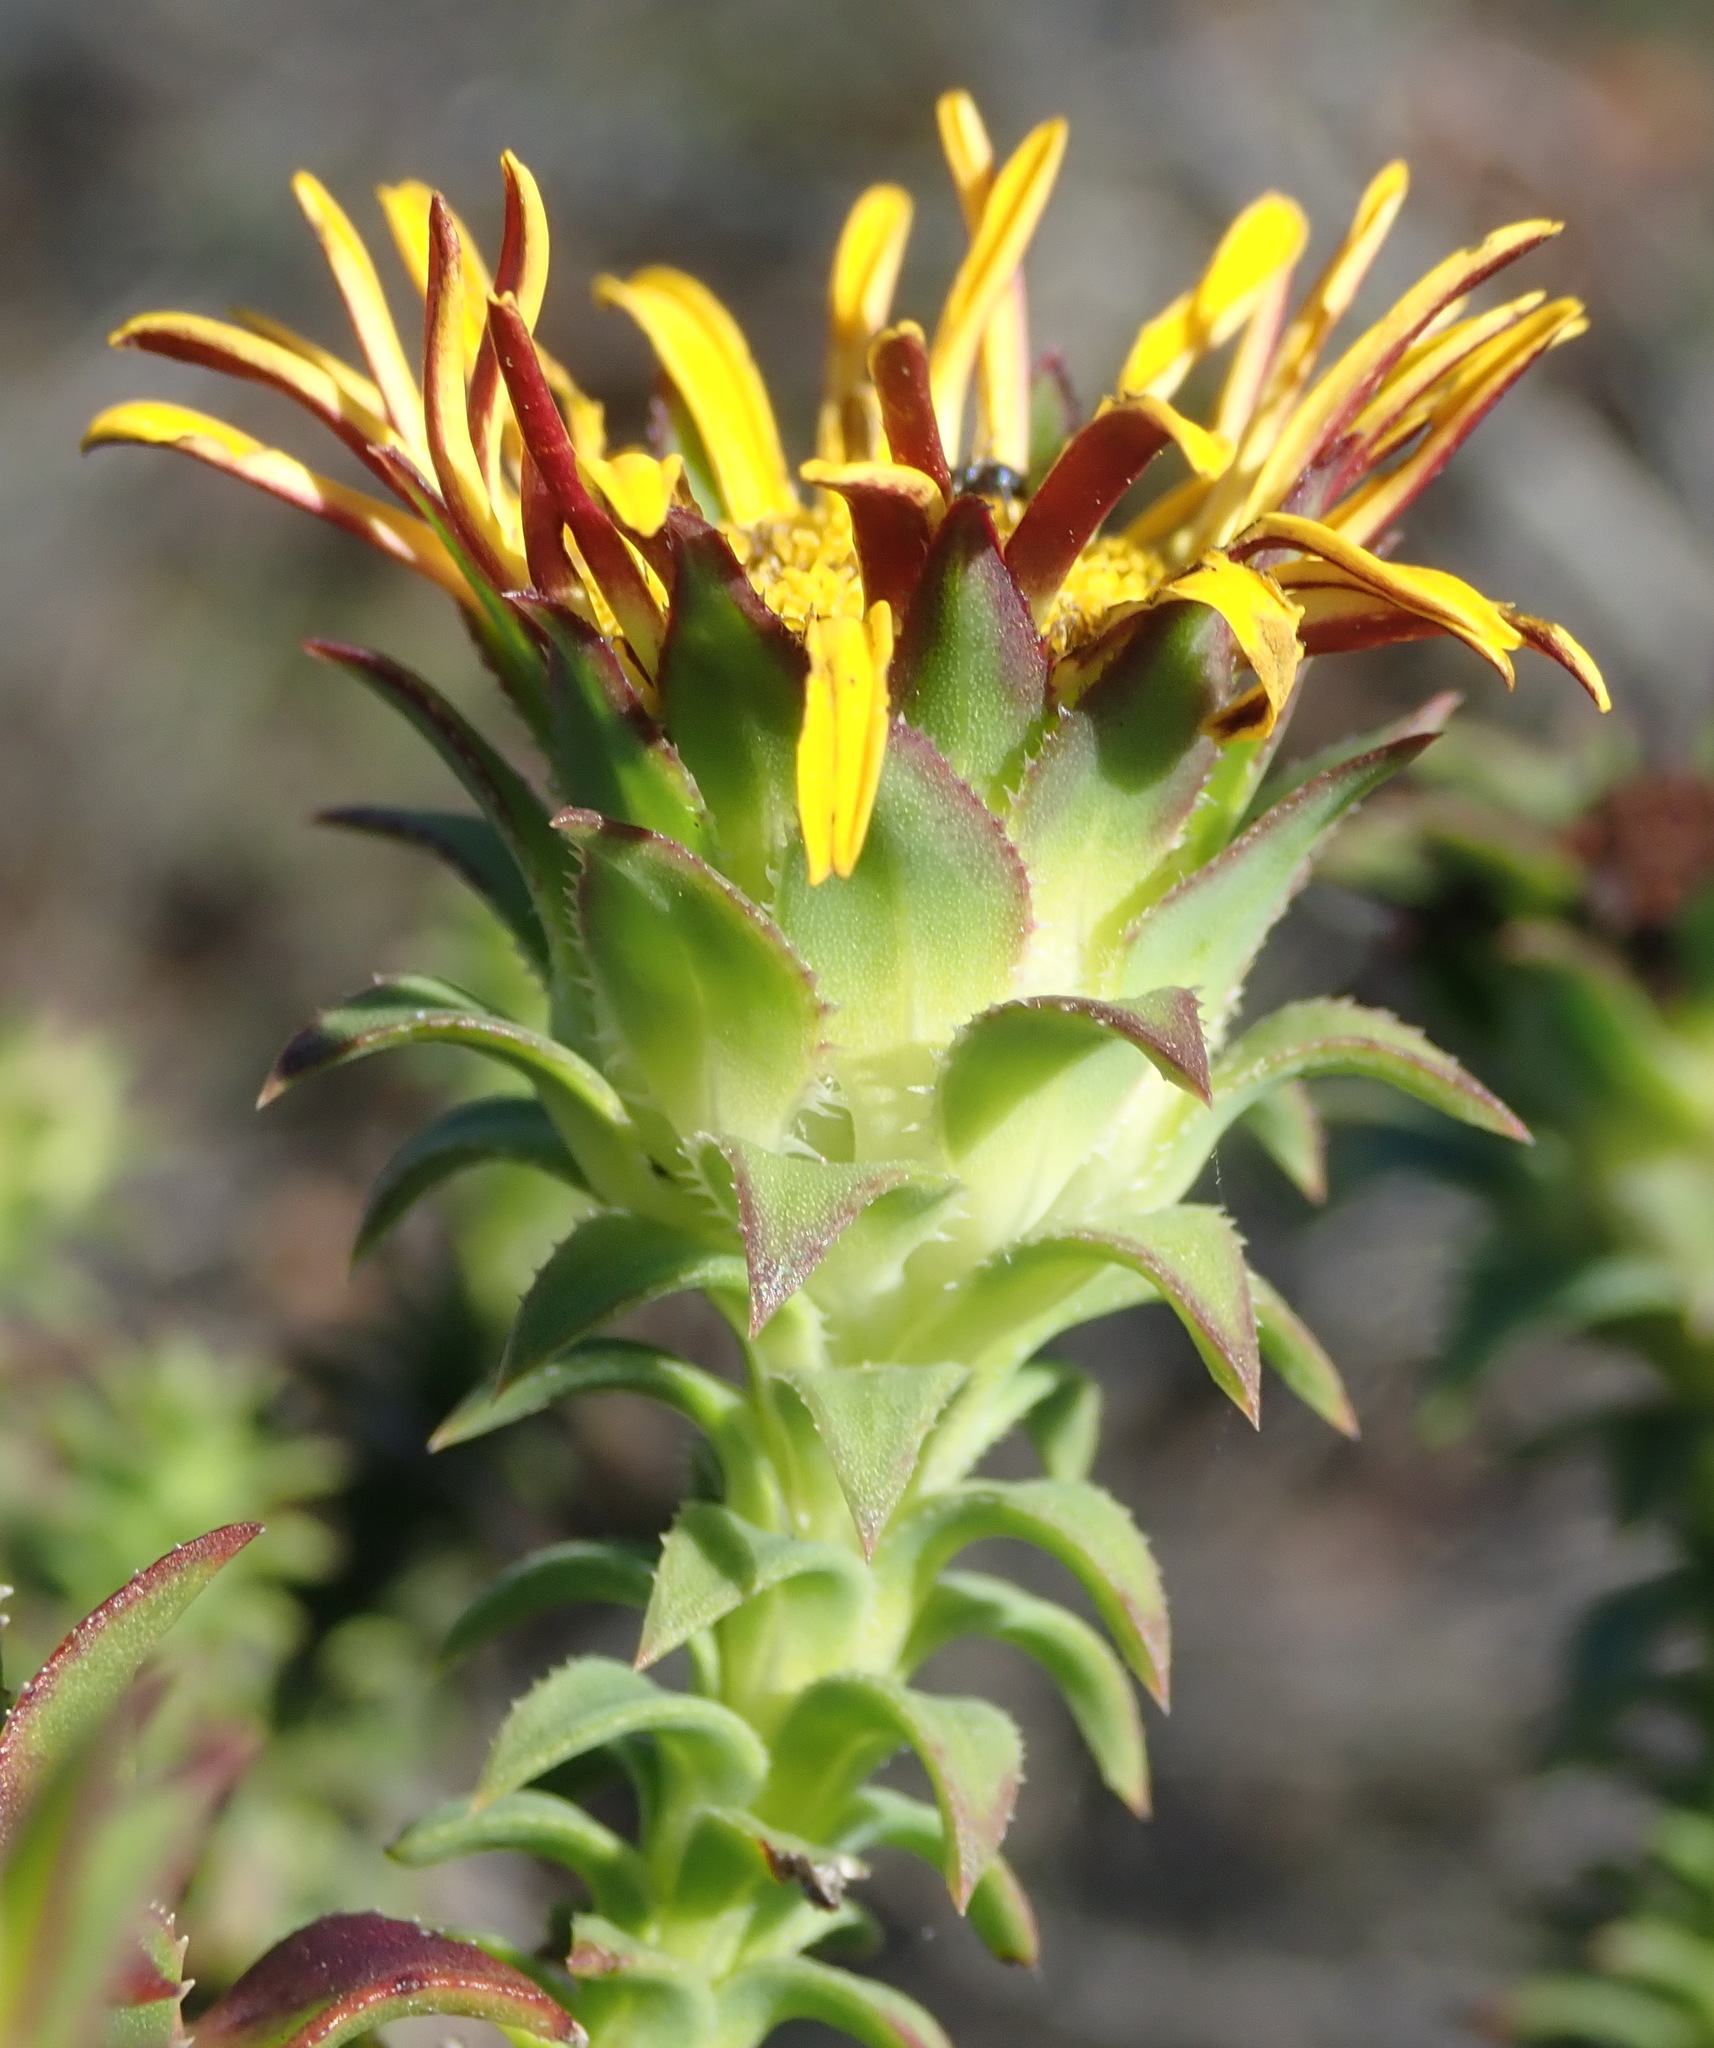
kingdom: Plantae
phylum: Tracheophyta
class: Magnoliopsida
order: Asterales
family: Asteraceae
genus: Oedera
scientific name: Oedera imbricata
